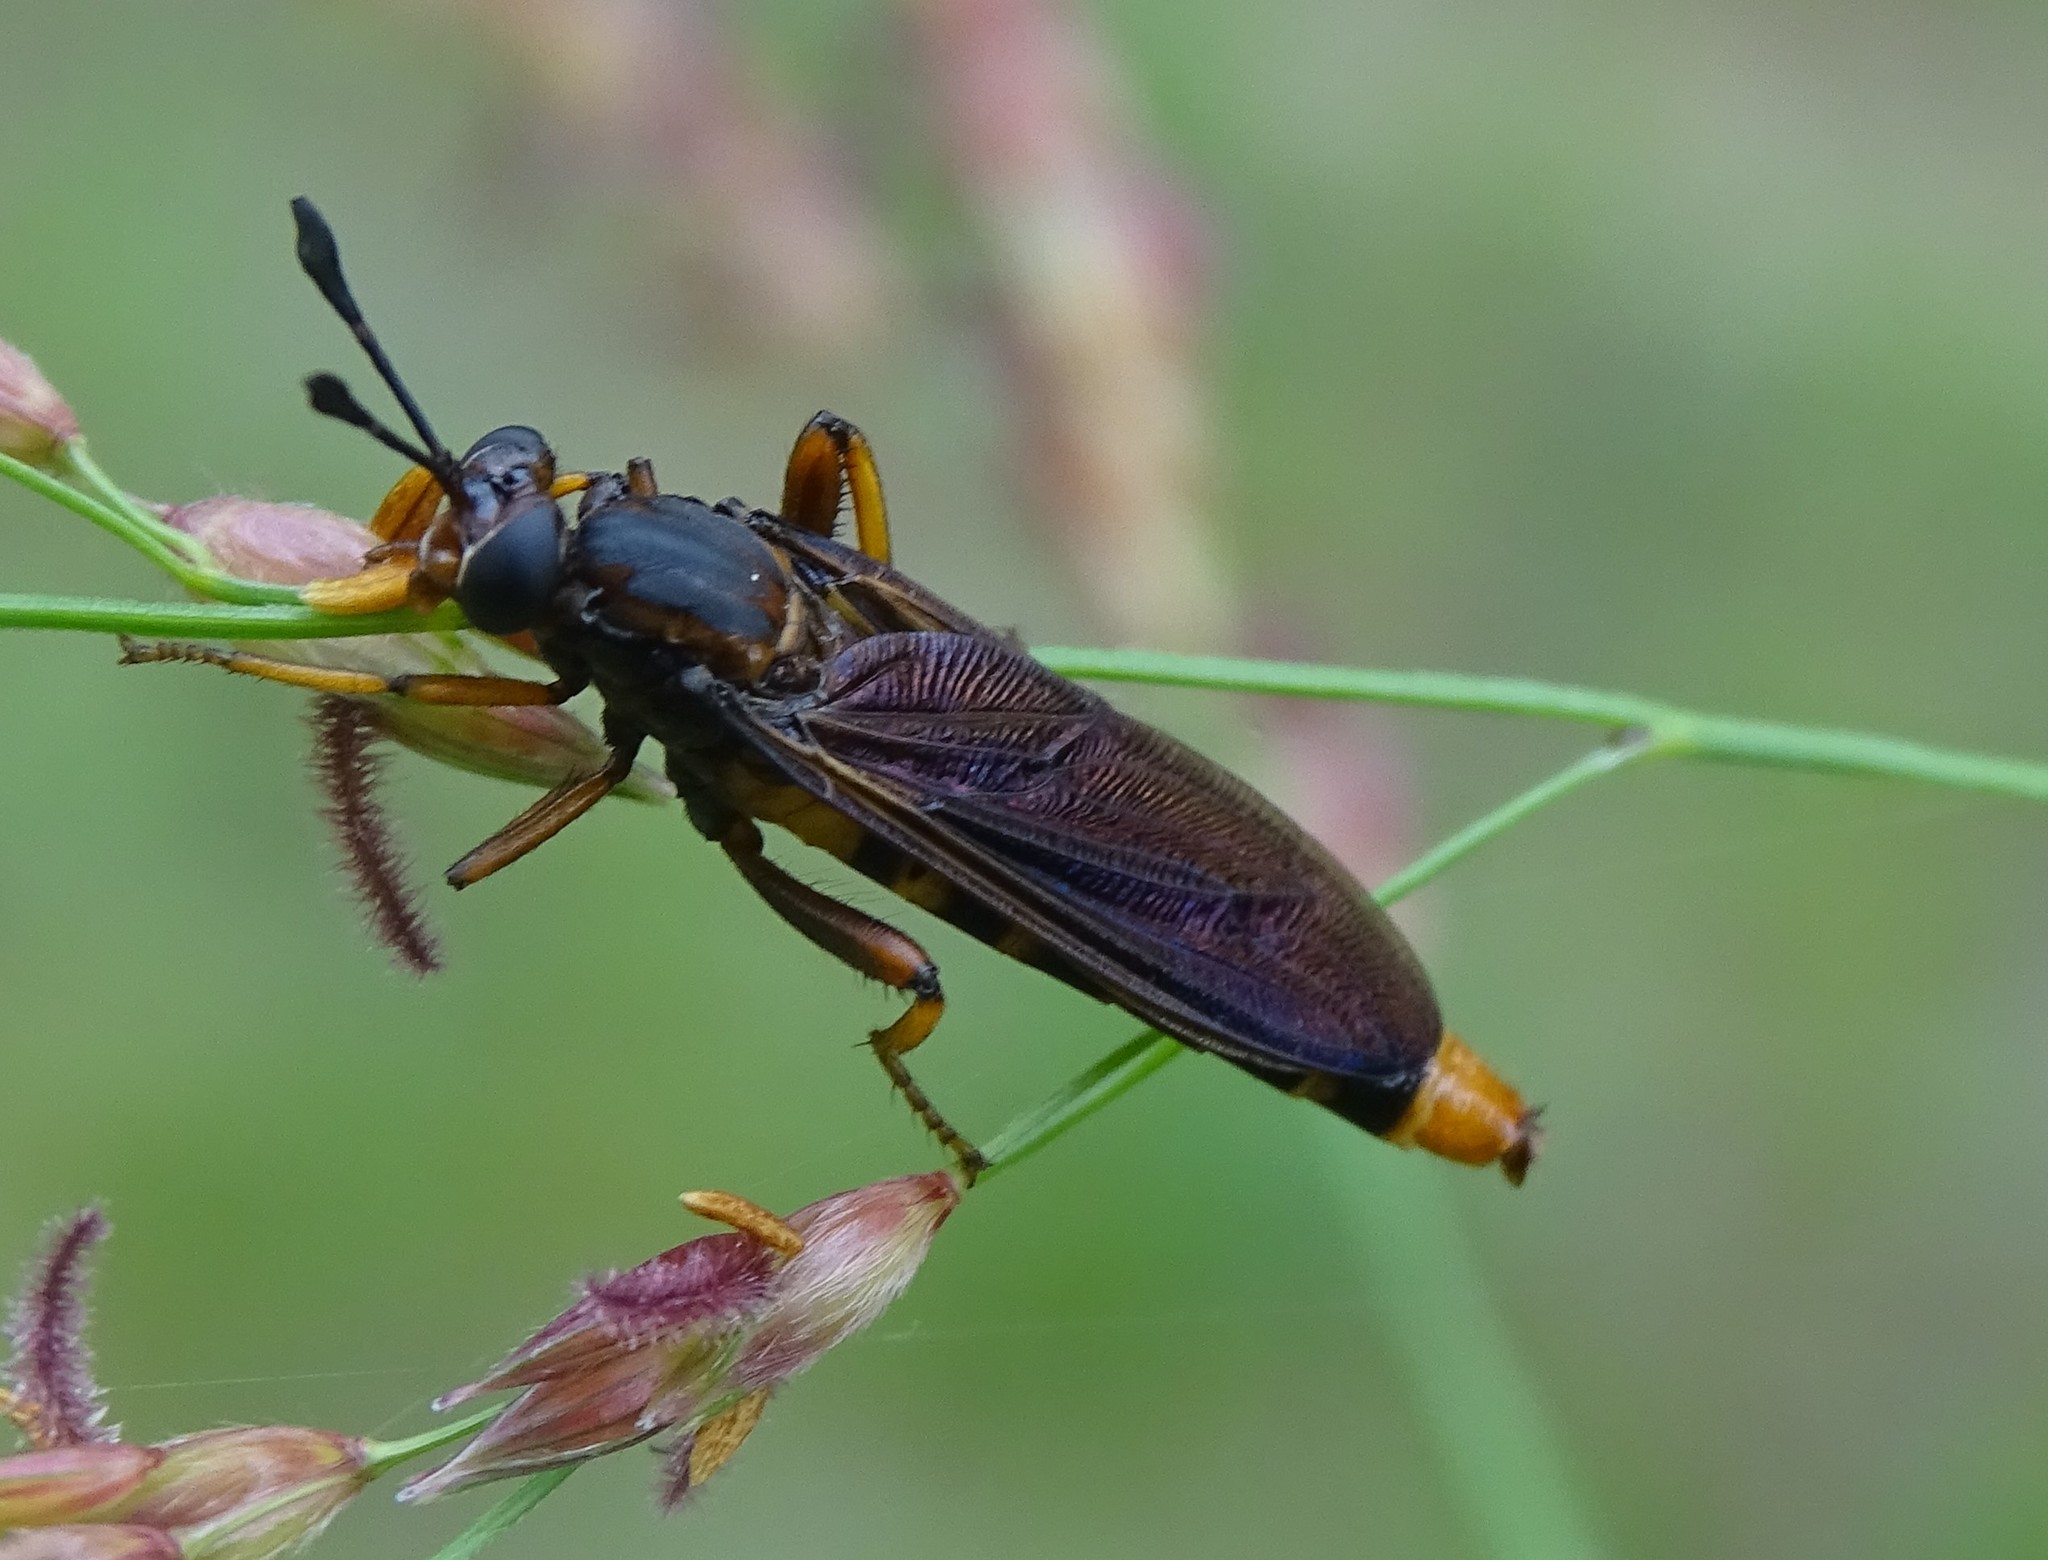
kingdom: Animalia
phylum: Arthropoda
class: Insecta
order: Diptera
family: Mydidae
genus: Phyllomydas
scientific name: Phyllomydas parvulus
